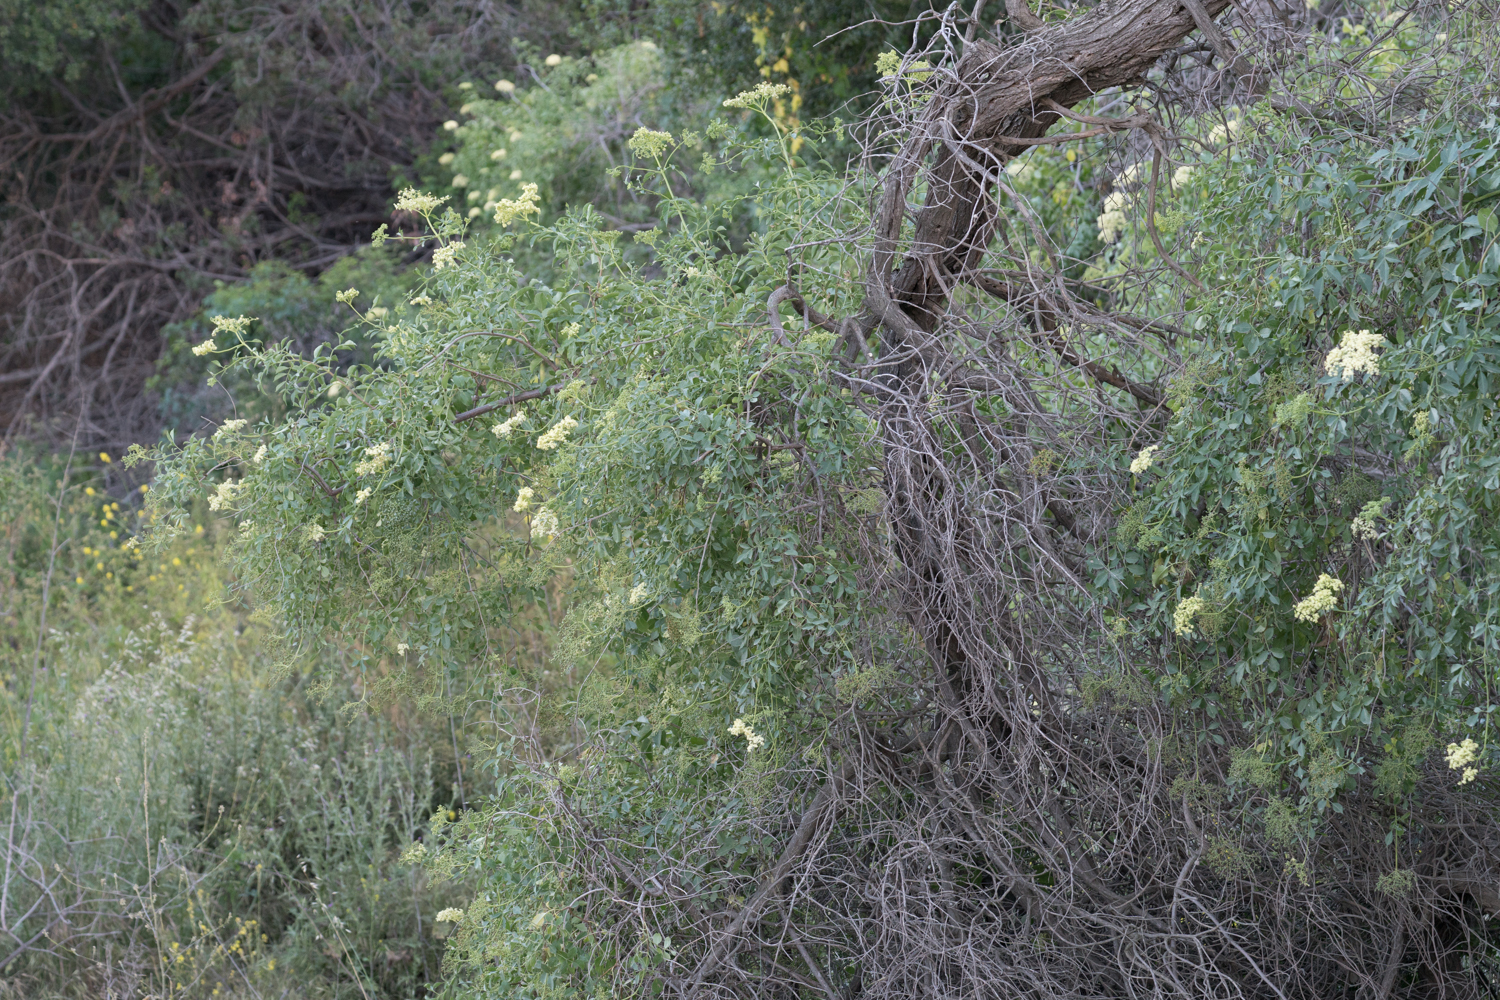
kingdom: Plantae
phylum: Tracheophyta
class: Magnoliopsida
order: Dipsacales
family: Viburnaceae
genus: Sambucus
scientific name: Sambucus cerulea
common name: Blue elder
